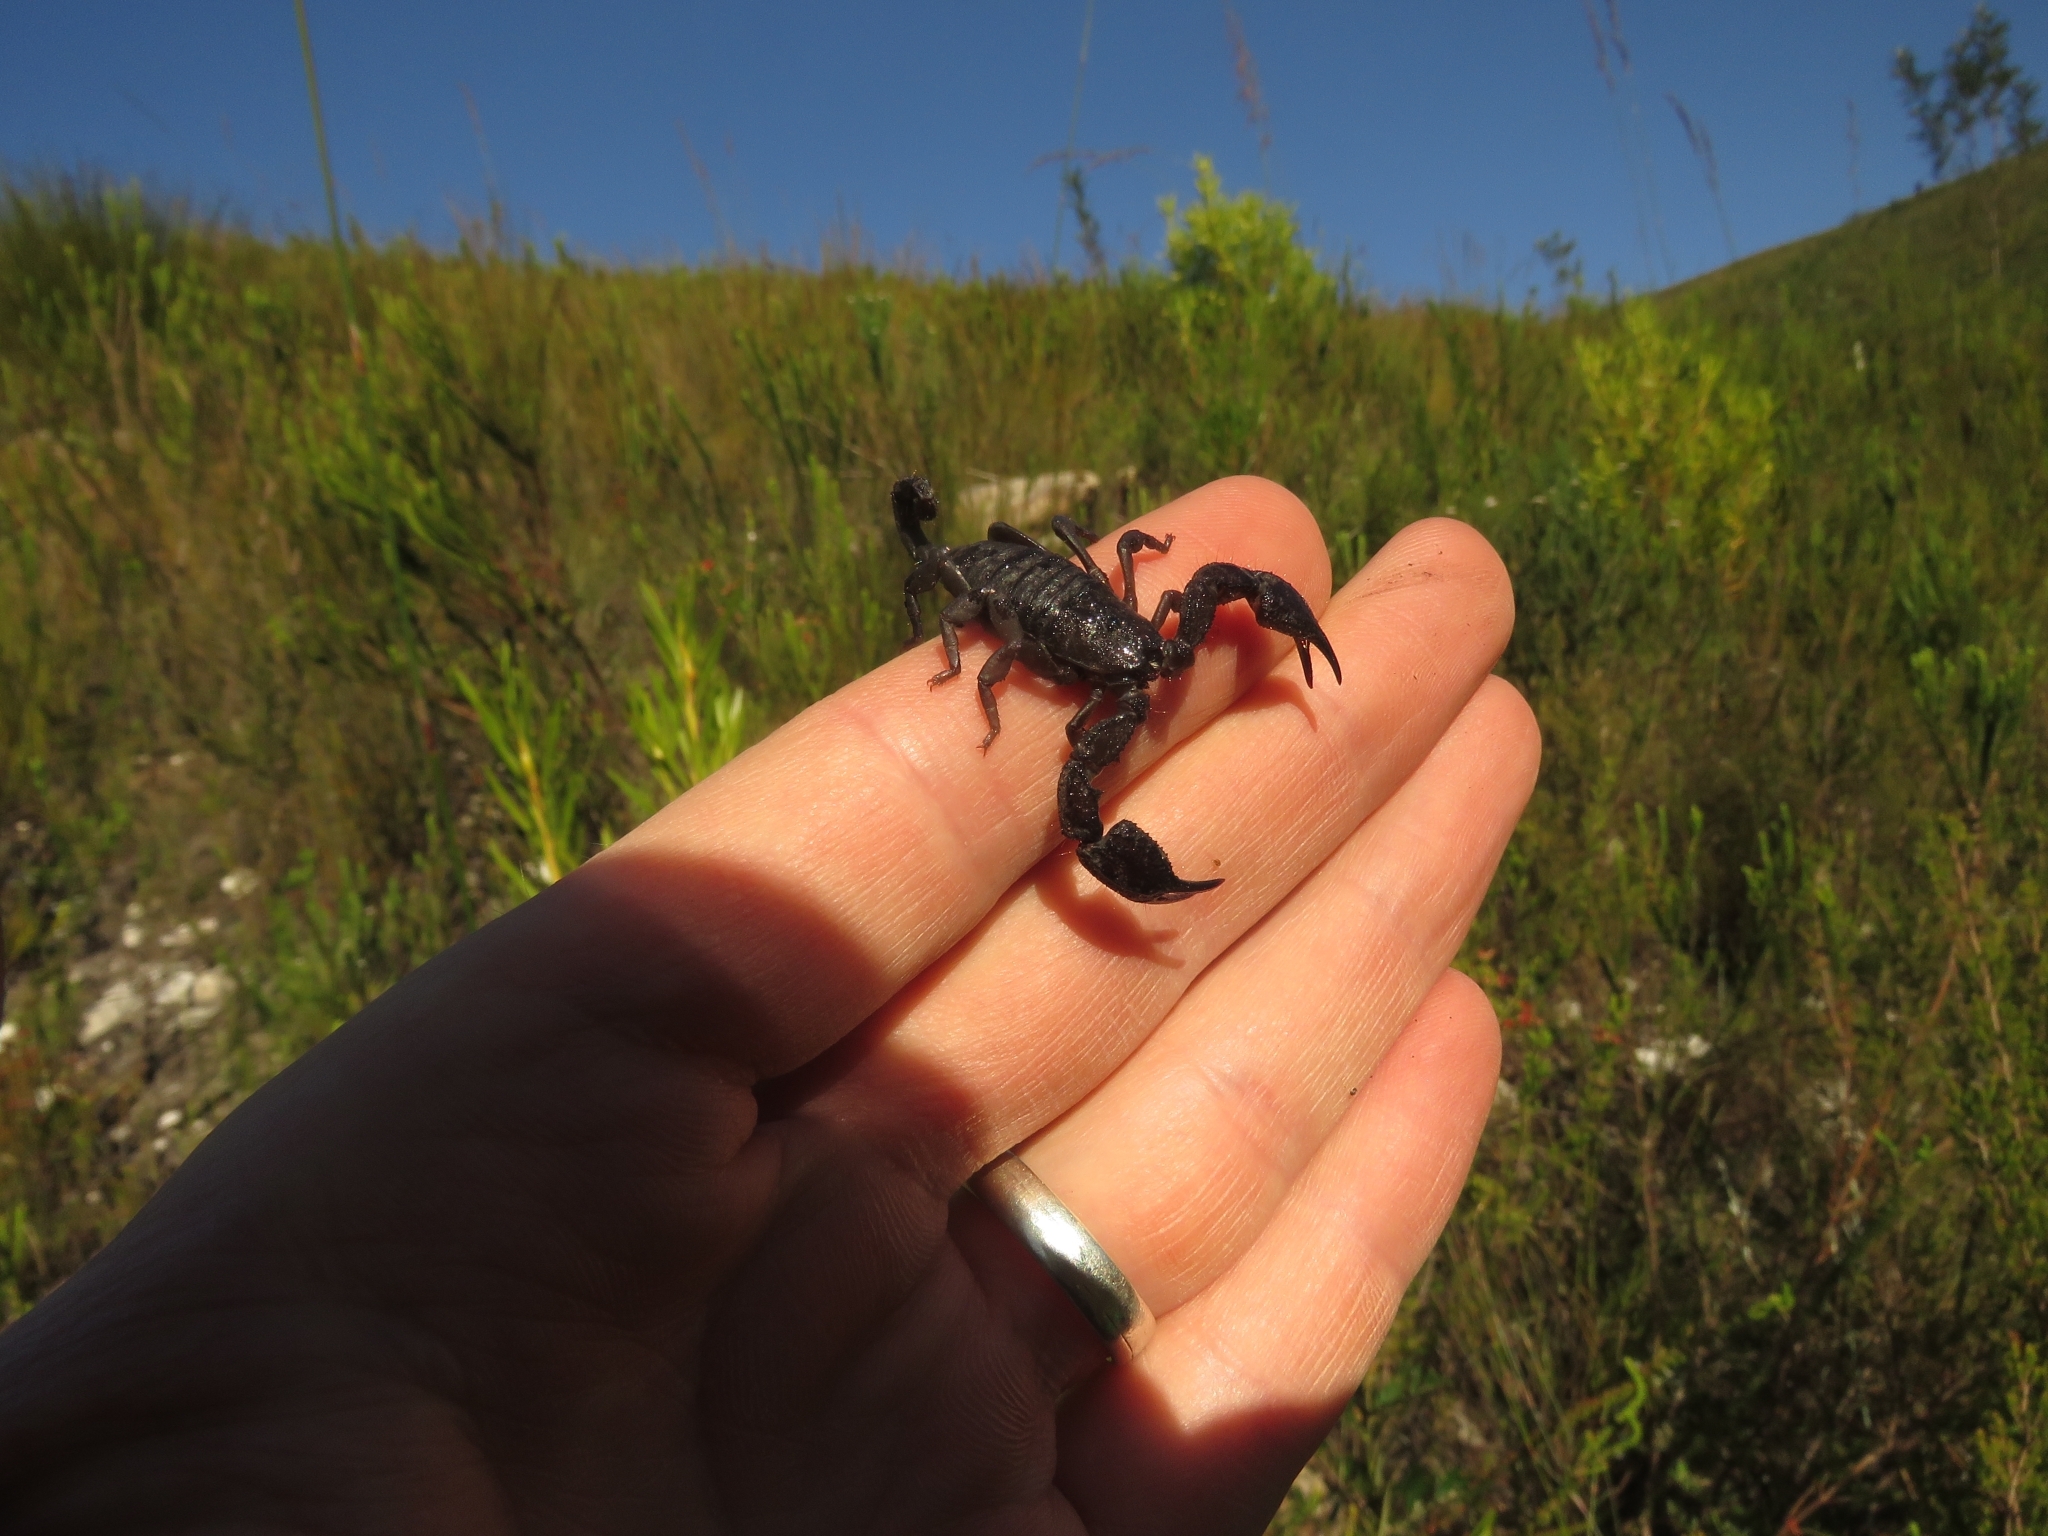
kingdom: Animalia
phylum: Arthropoda
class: Arachnida
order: Scorpiones
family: Hormuridae
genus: Opisthacanthus
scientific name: Opisthacanthus capensis
